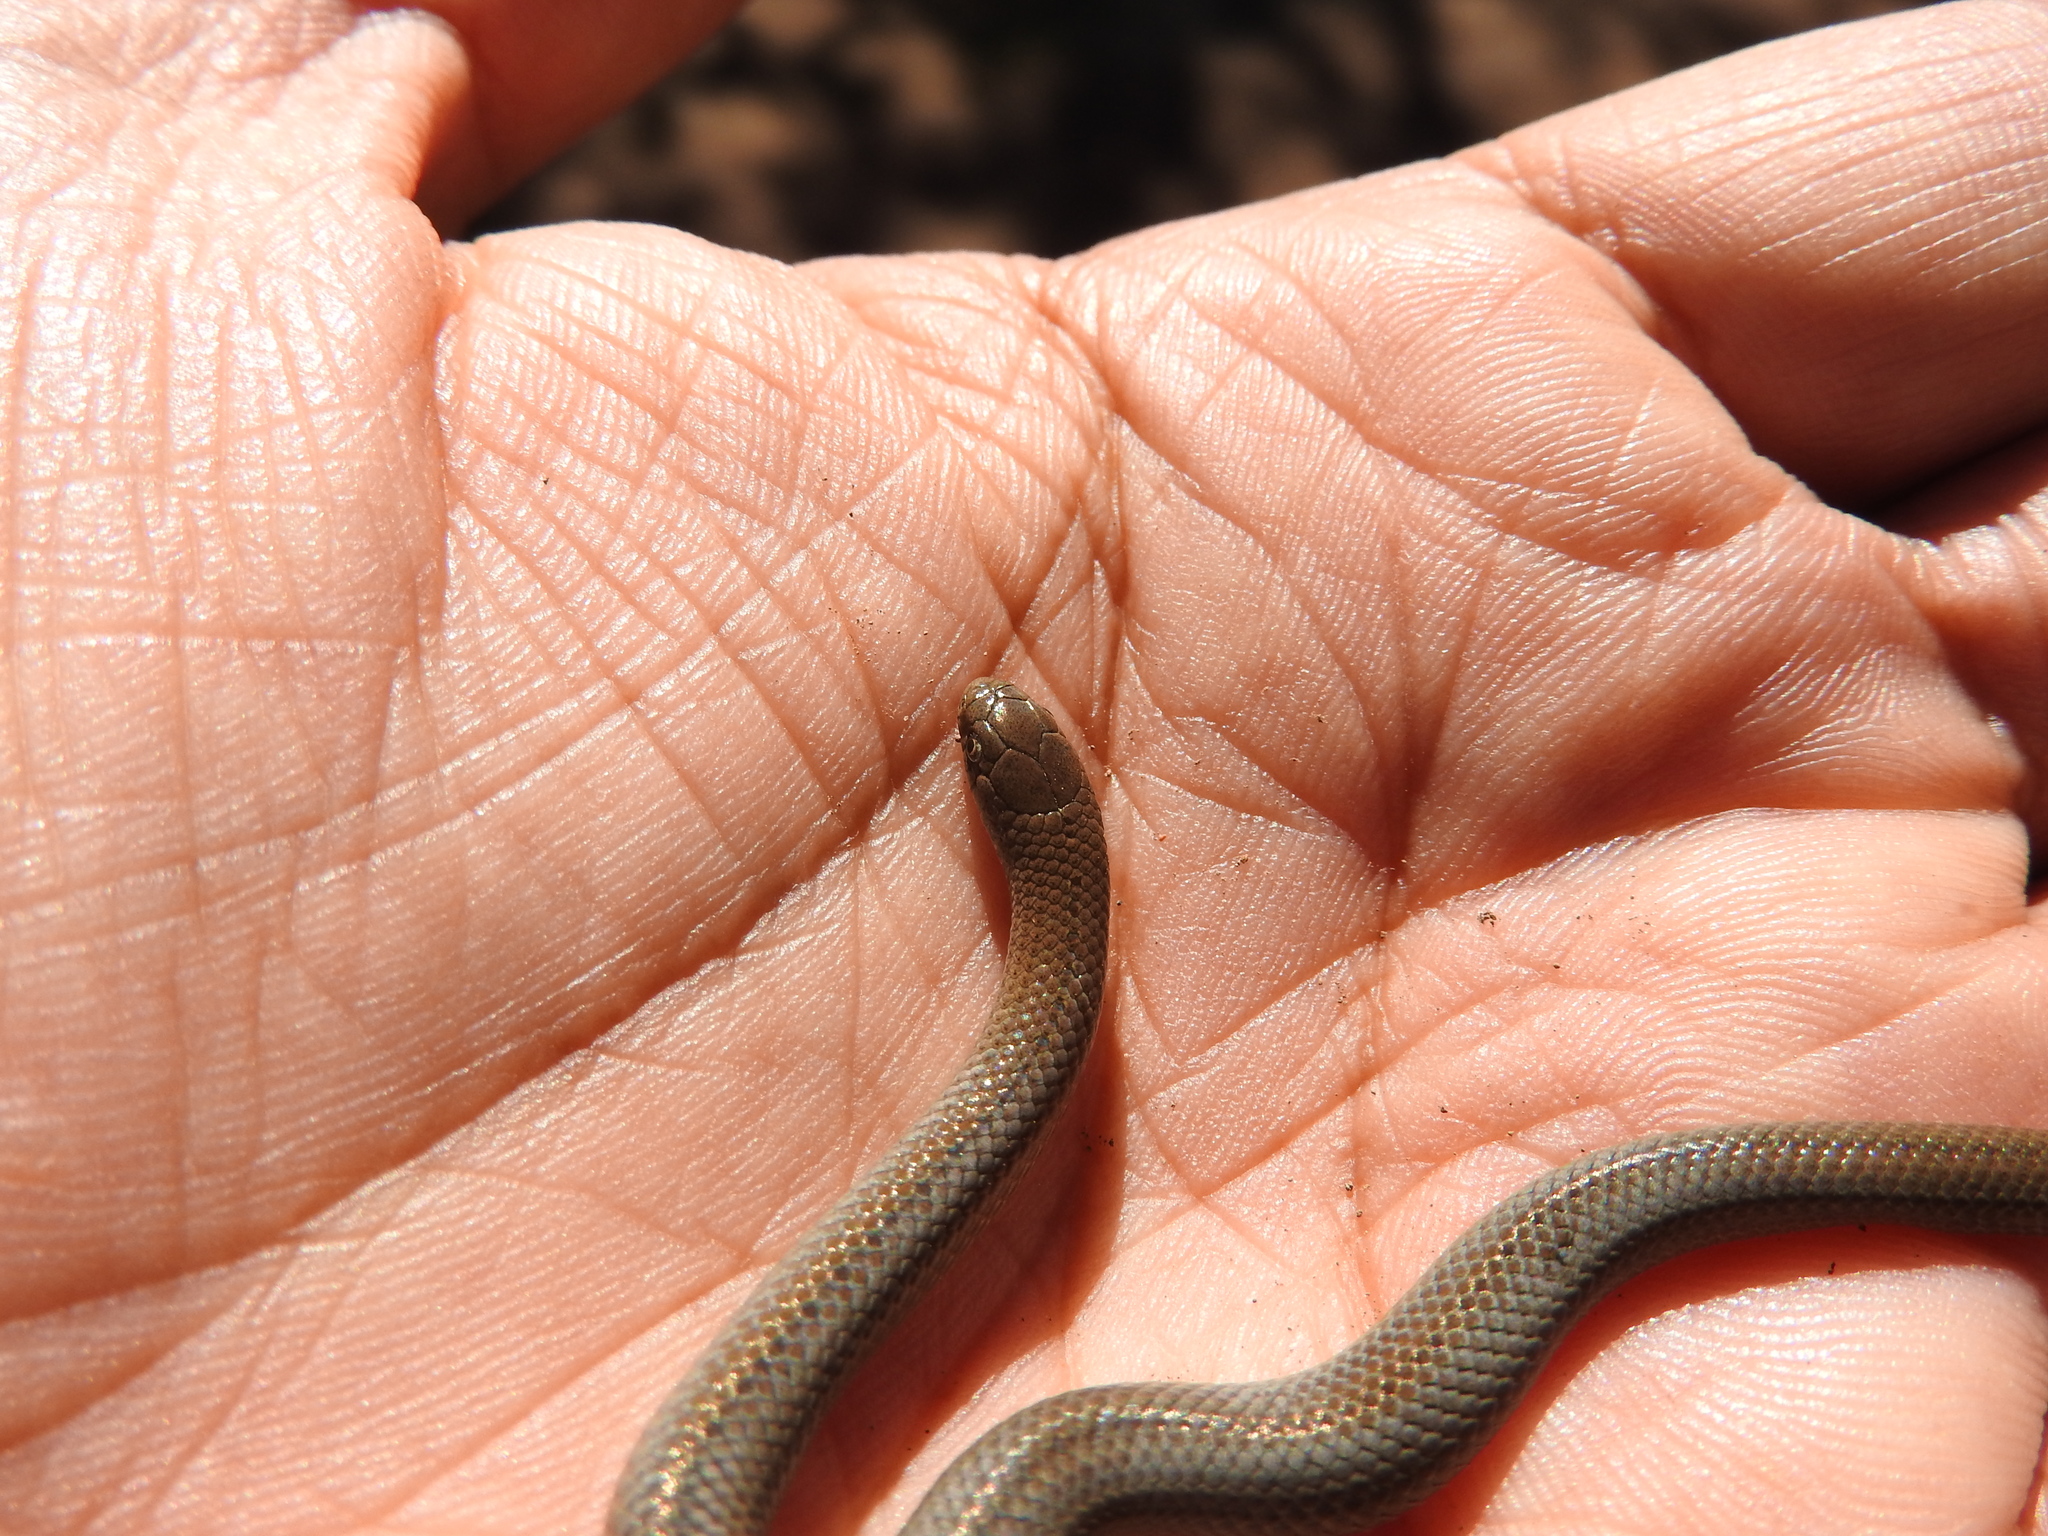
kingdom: Animalia
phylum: Chordata
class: Squamata
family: Colubridae
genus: Conopsis
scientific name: Conopsis lineata
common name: Lined tolucan earthsnake
